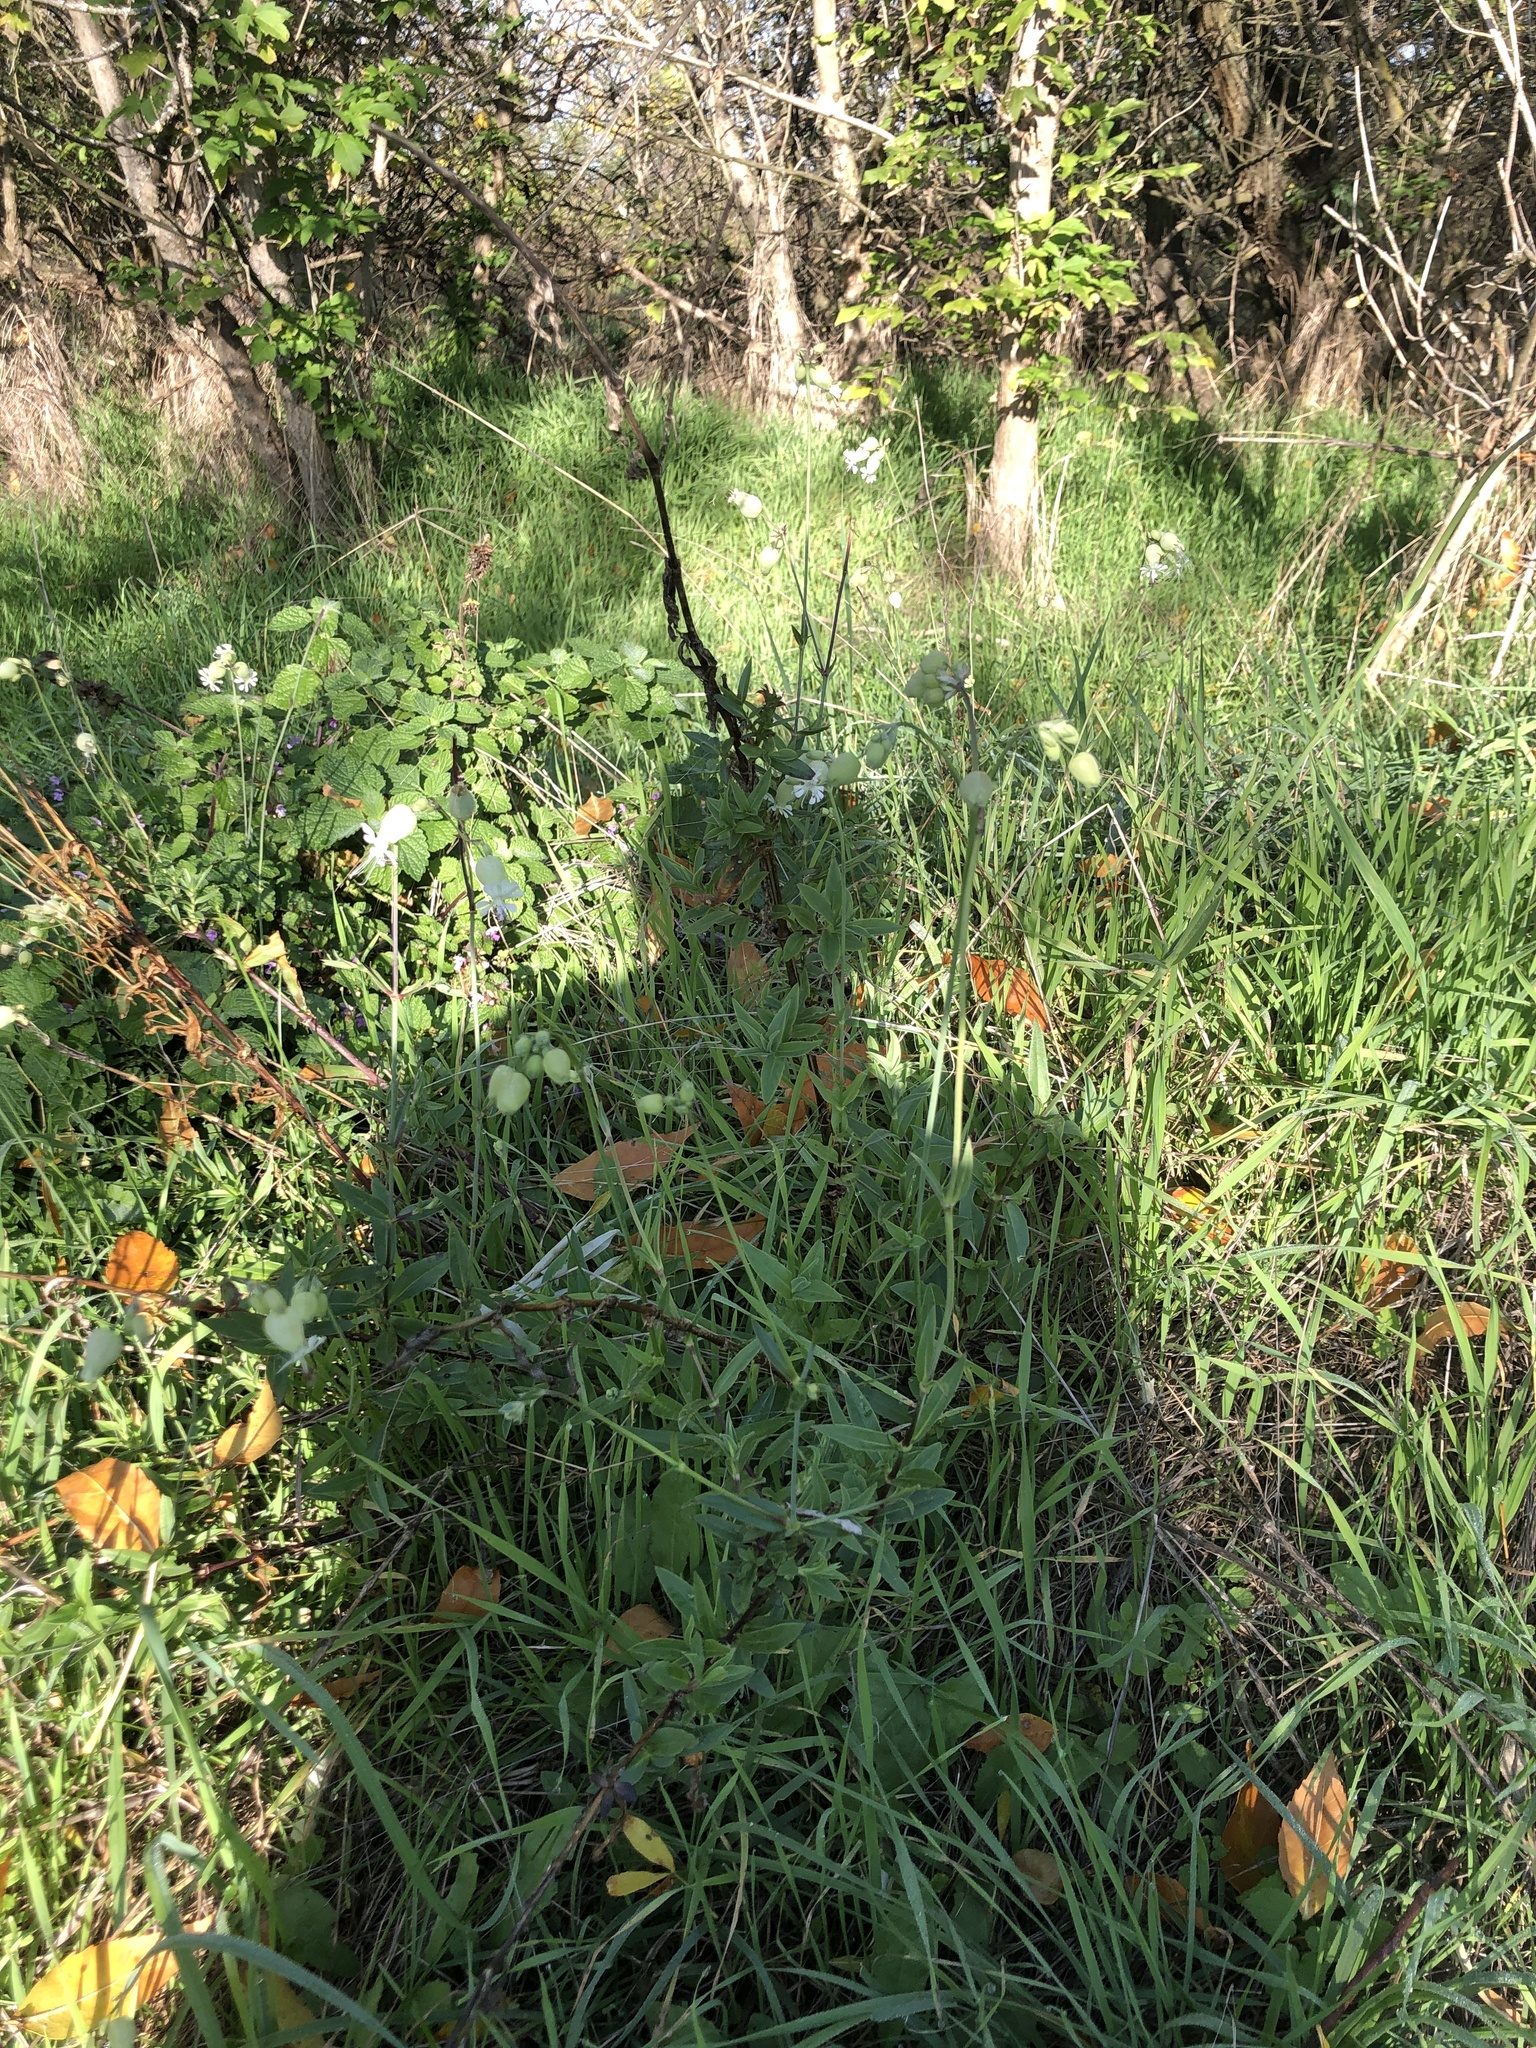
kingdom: Plantae
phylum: Tracheophyta
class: Magnoliopsida
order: Caryophyllales
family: Caryophyllaceae
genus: Silene
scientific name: Silene vulgaris
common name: Bladder campion
